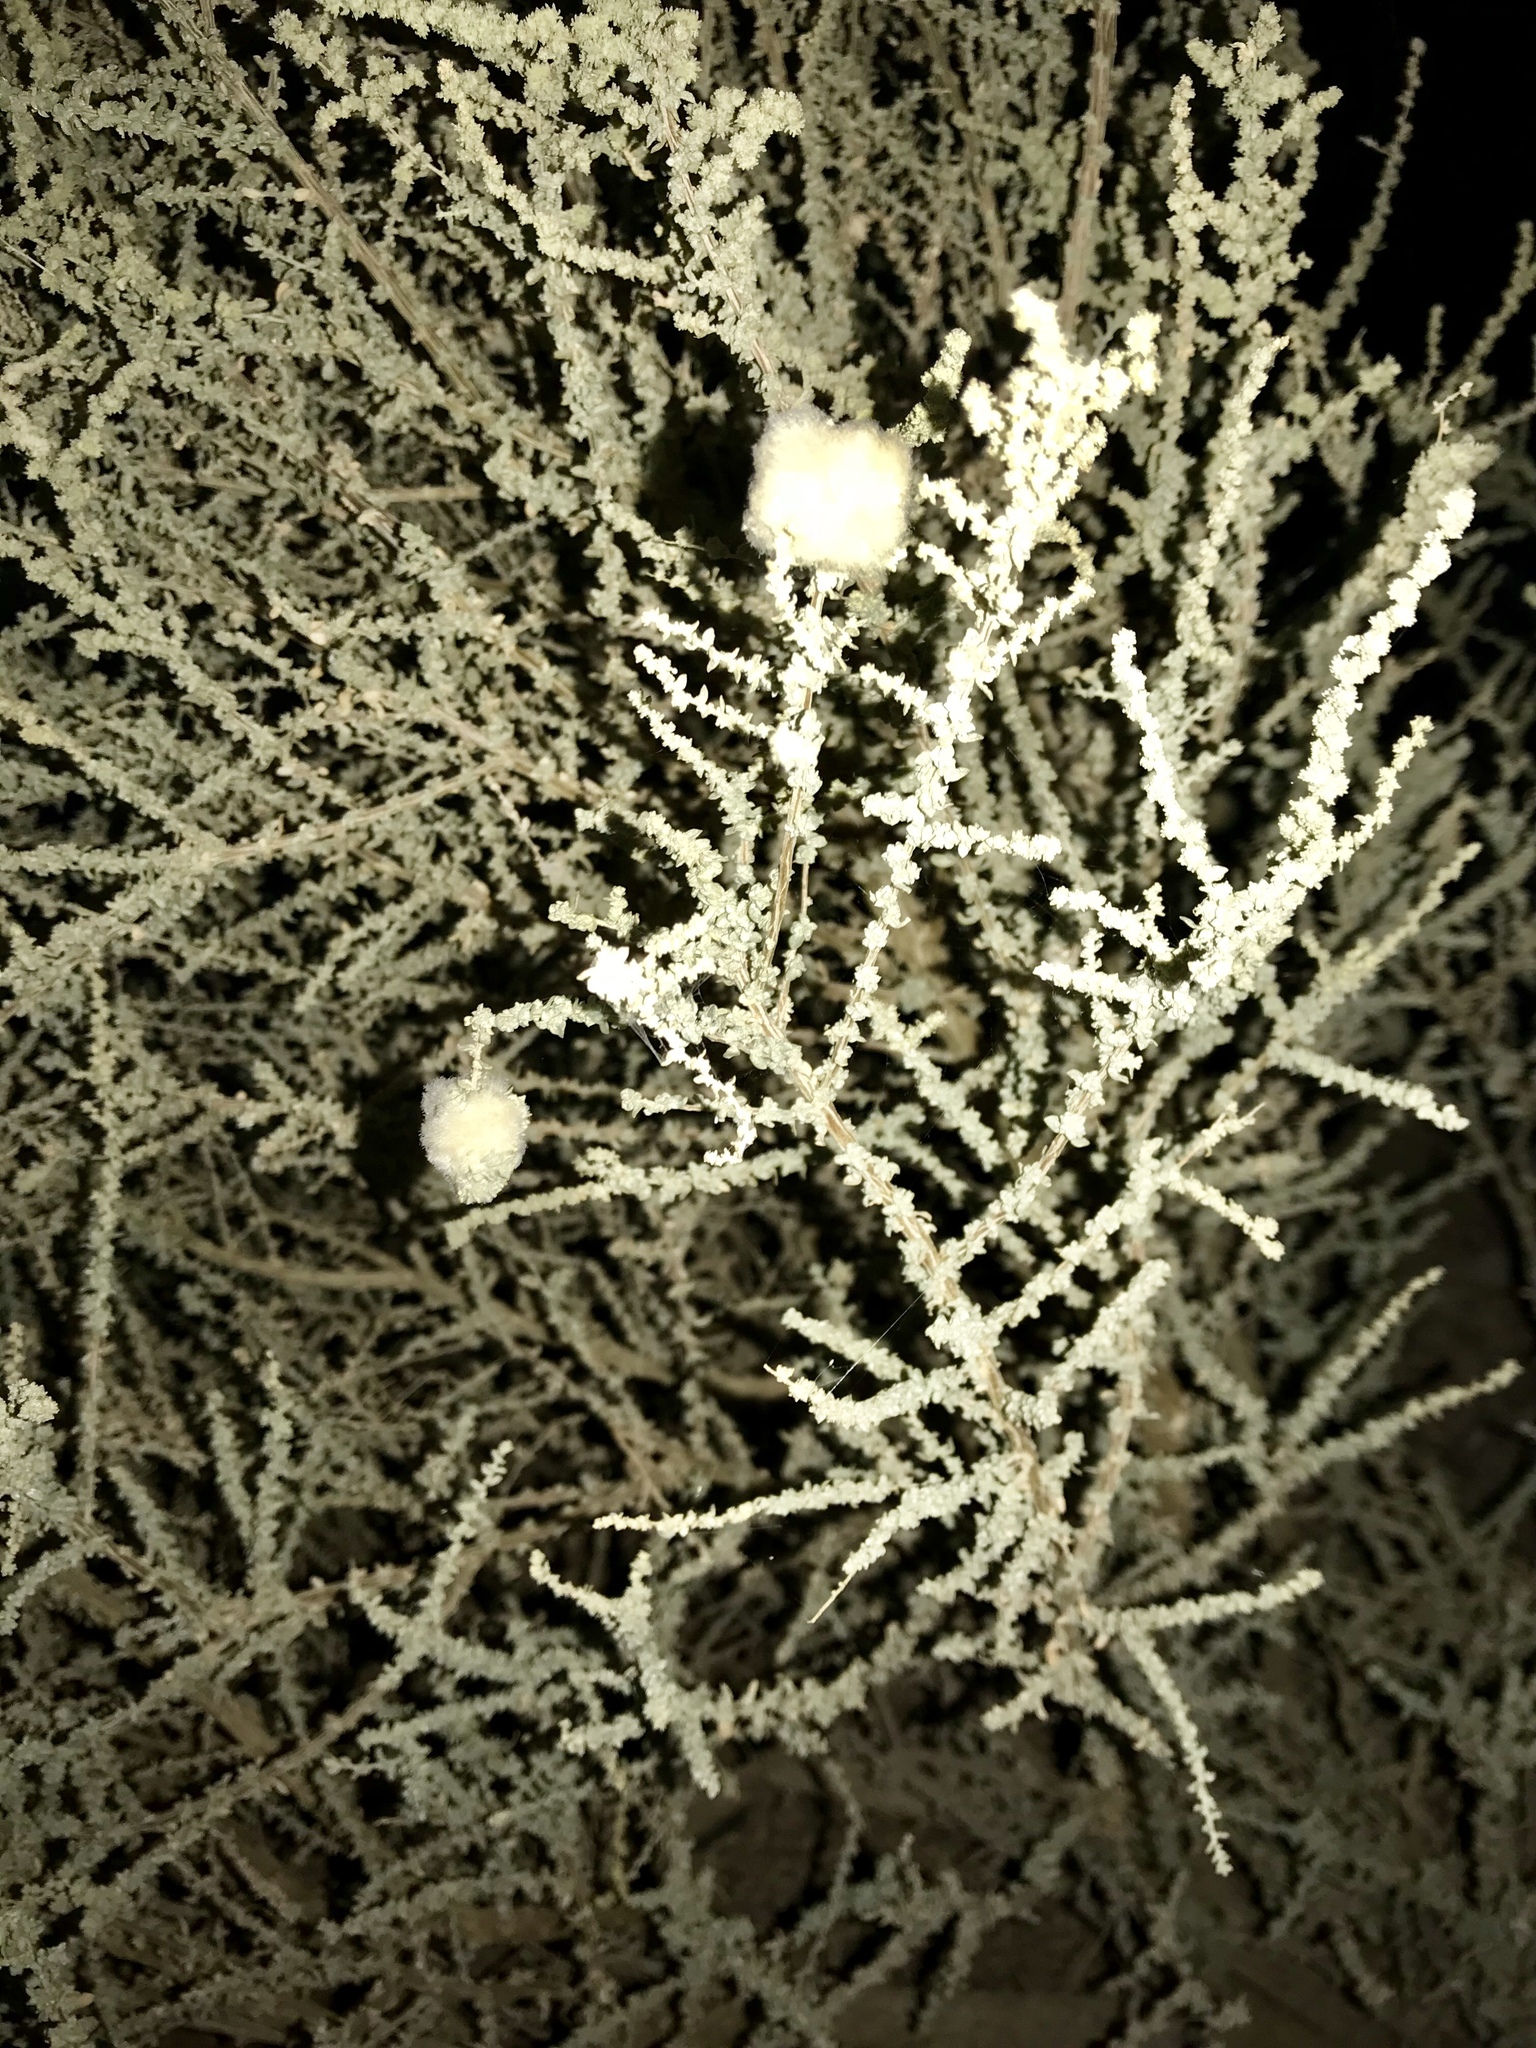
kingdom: Animalia
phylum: Arthropoda
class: Insecta
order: Diptera
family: Cecidomyiidae
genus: Asphondylia
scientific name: Asphondylia floccosa
